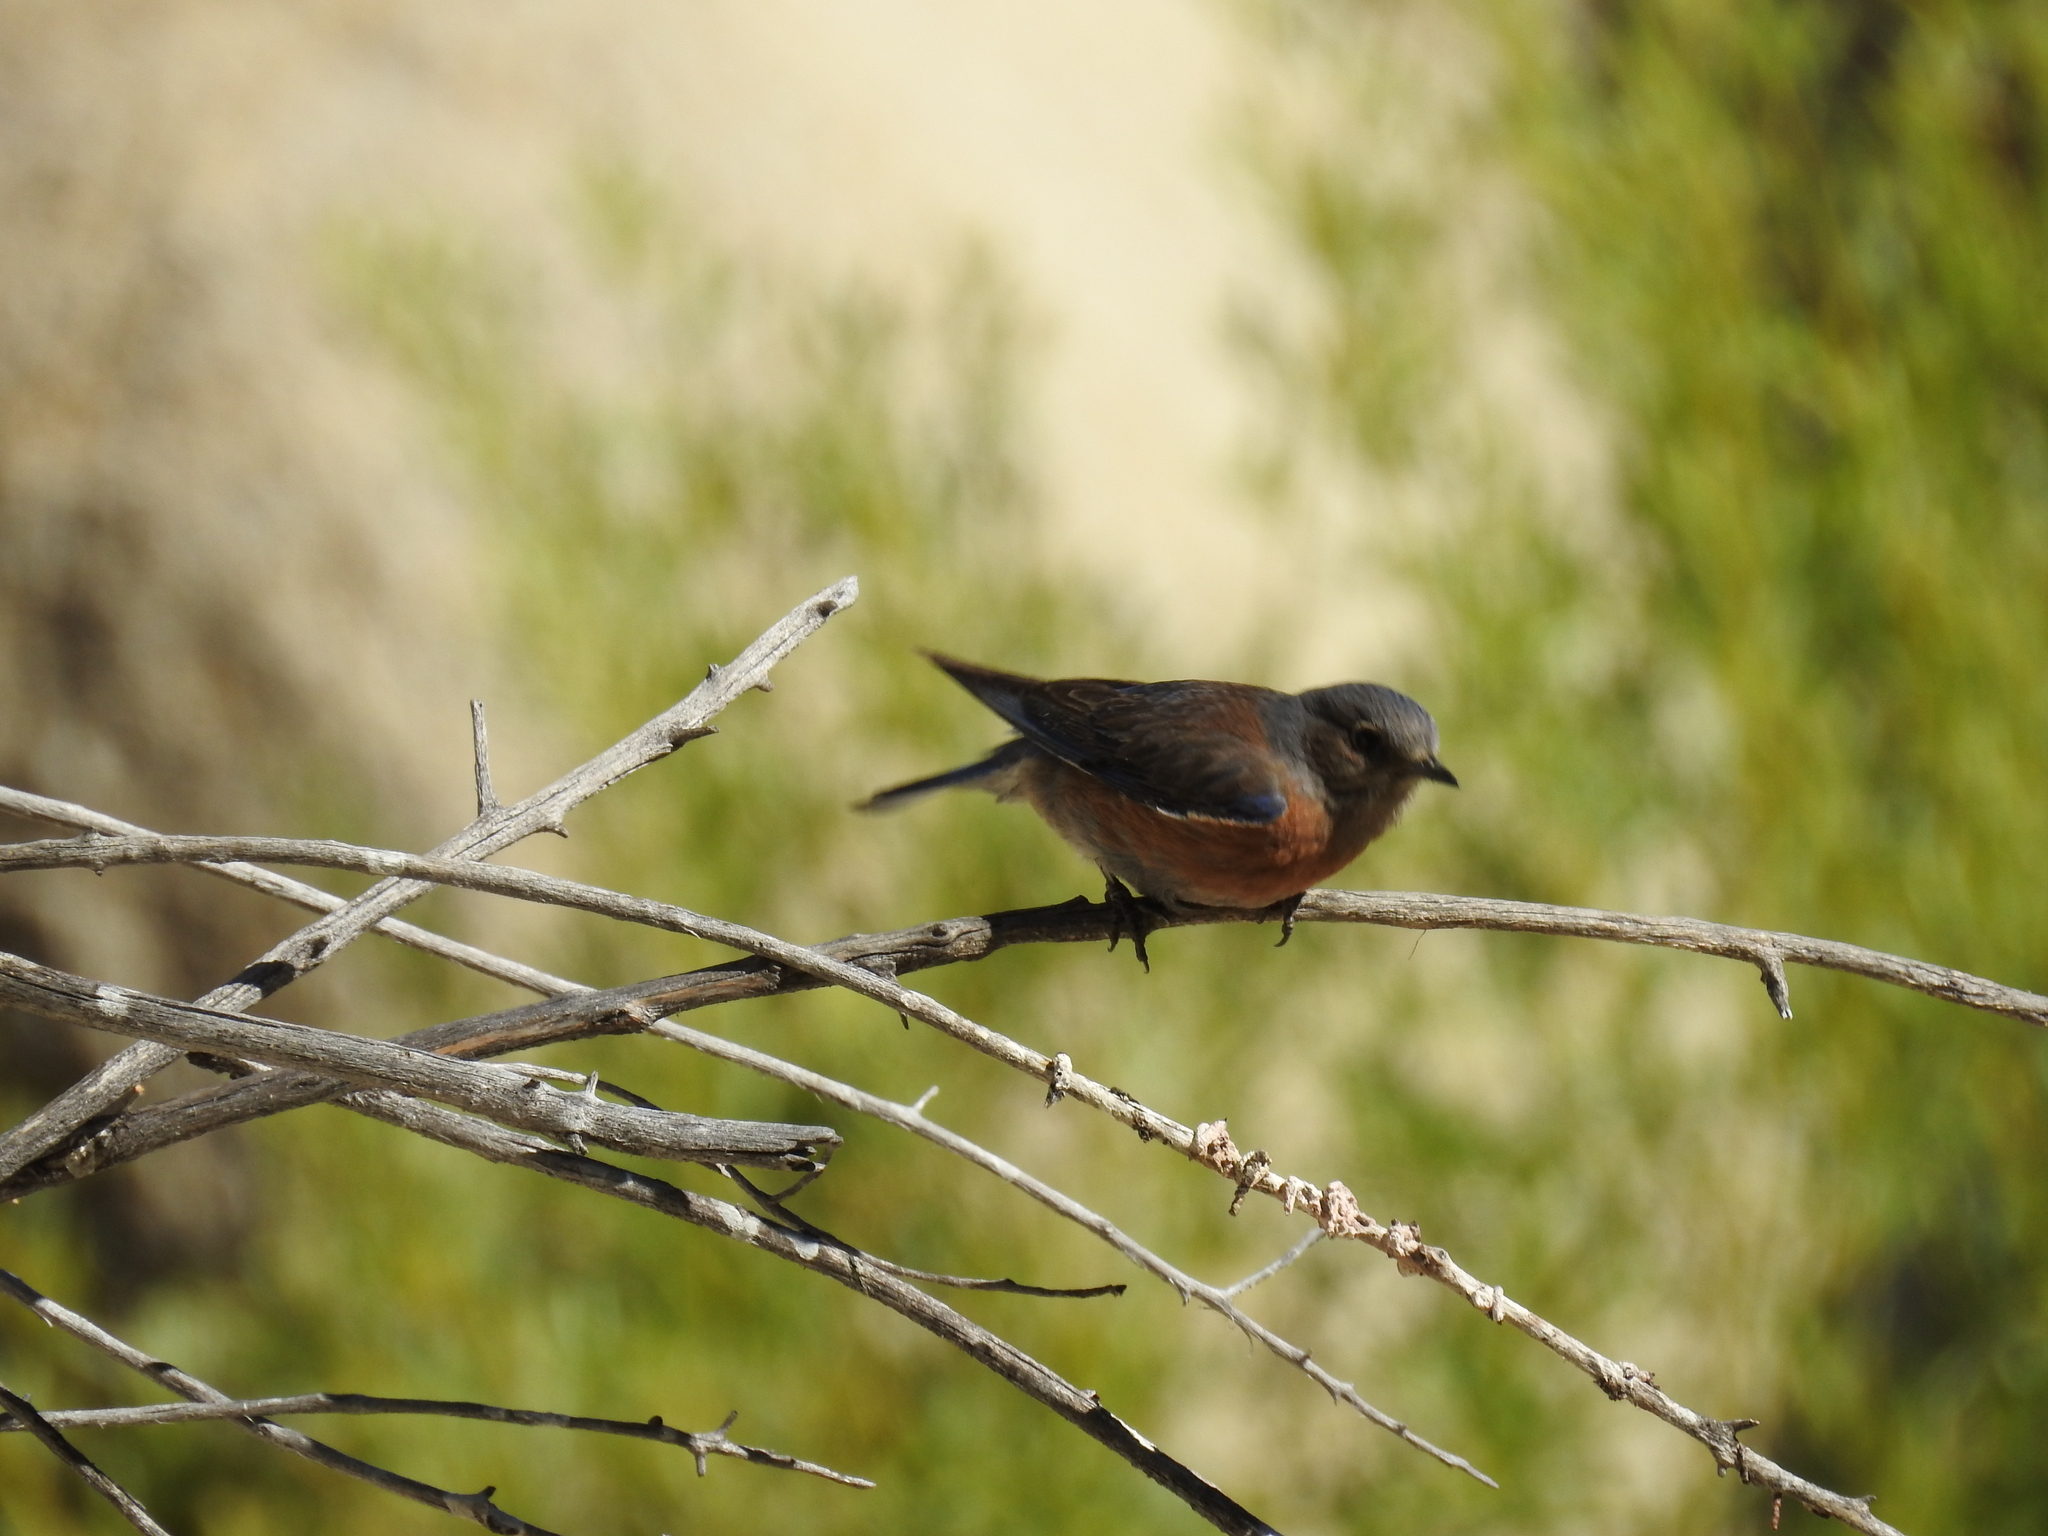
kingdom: Animalia
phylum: Chordata
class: Aves
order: Passeriformes
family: Turdidae
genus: Sialia
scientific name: Sialia mexicana
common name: Western bluebird
